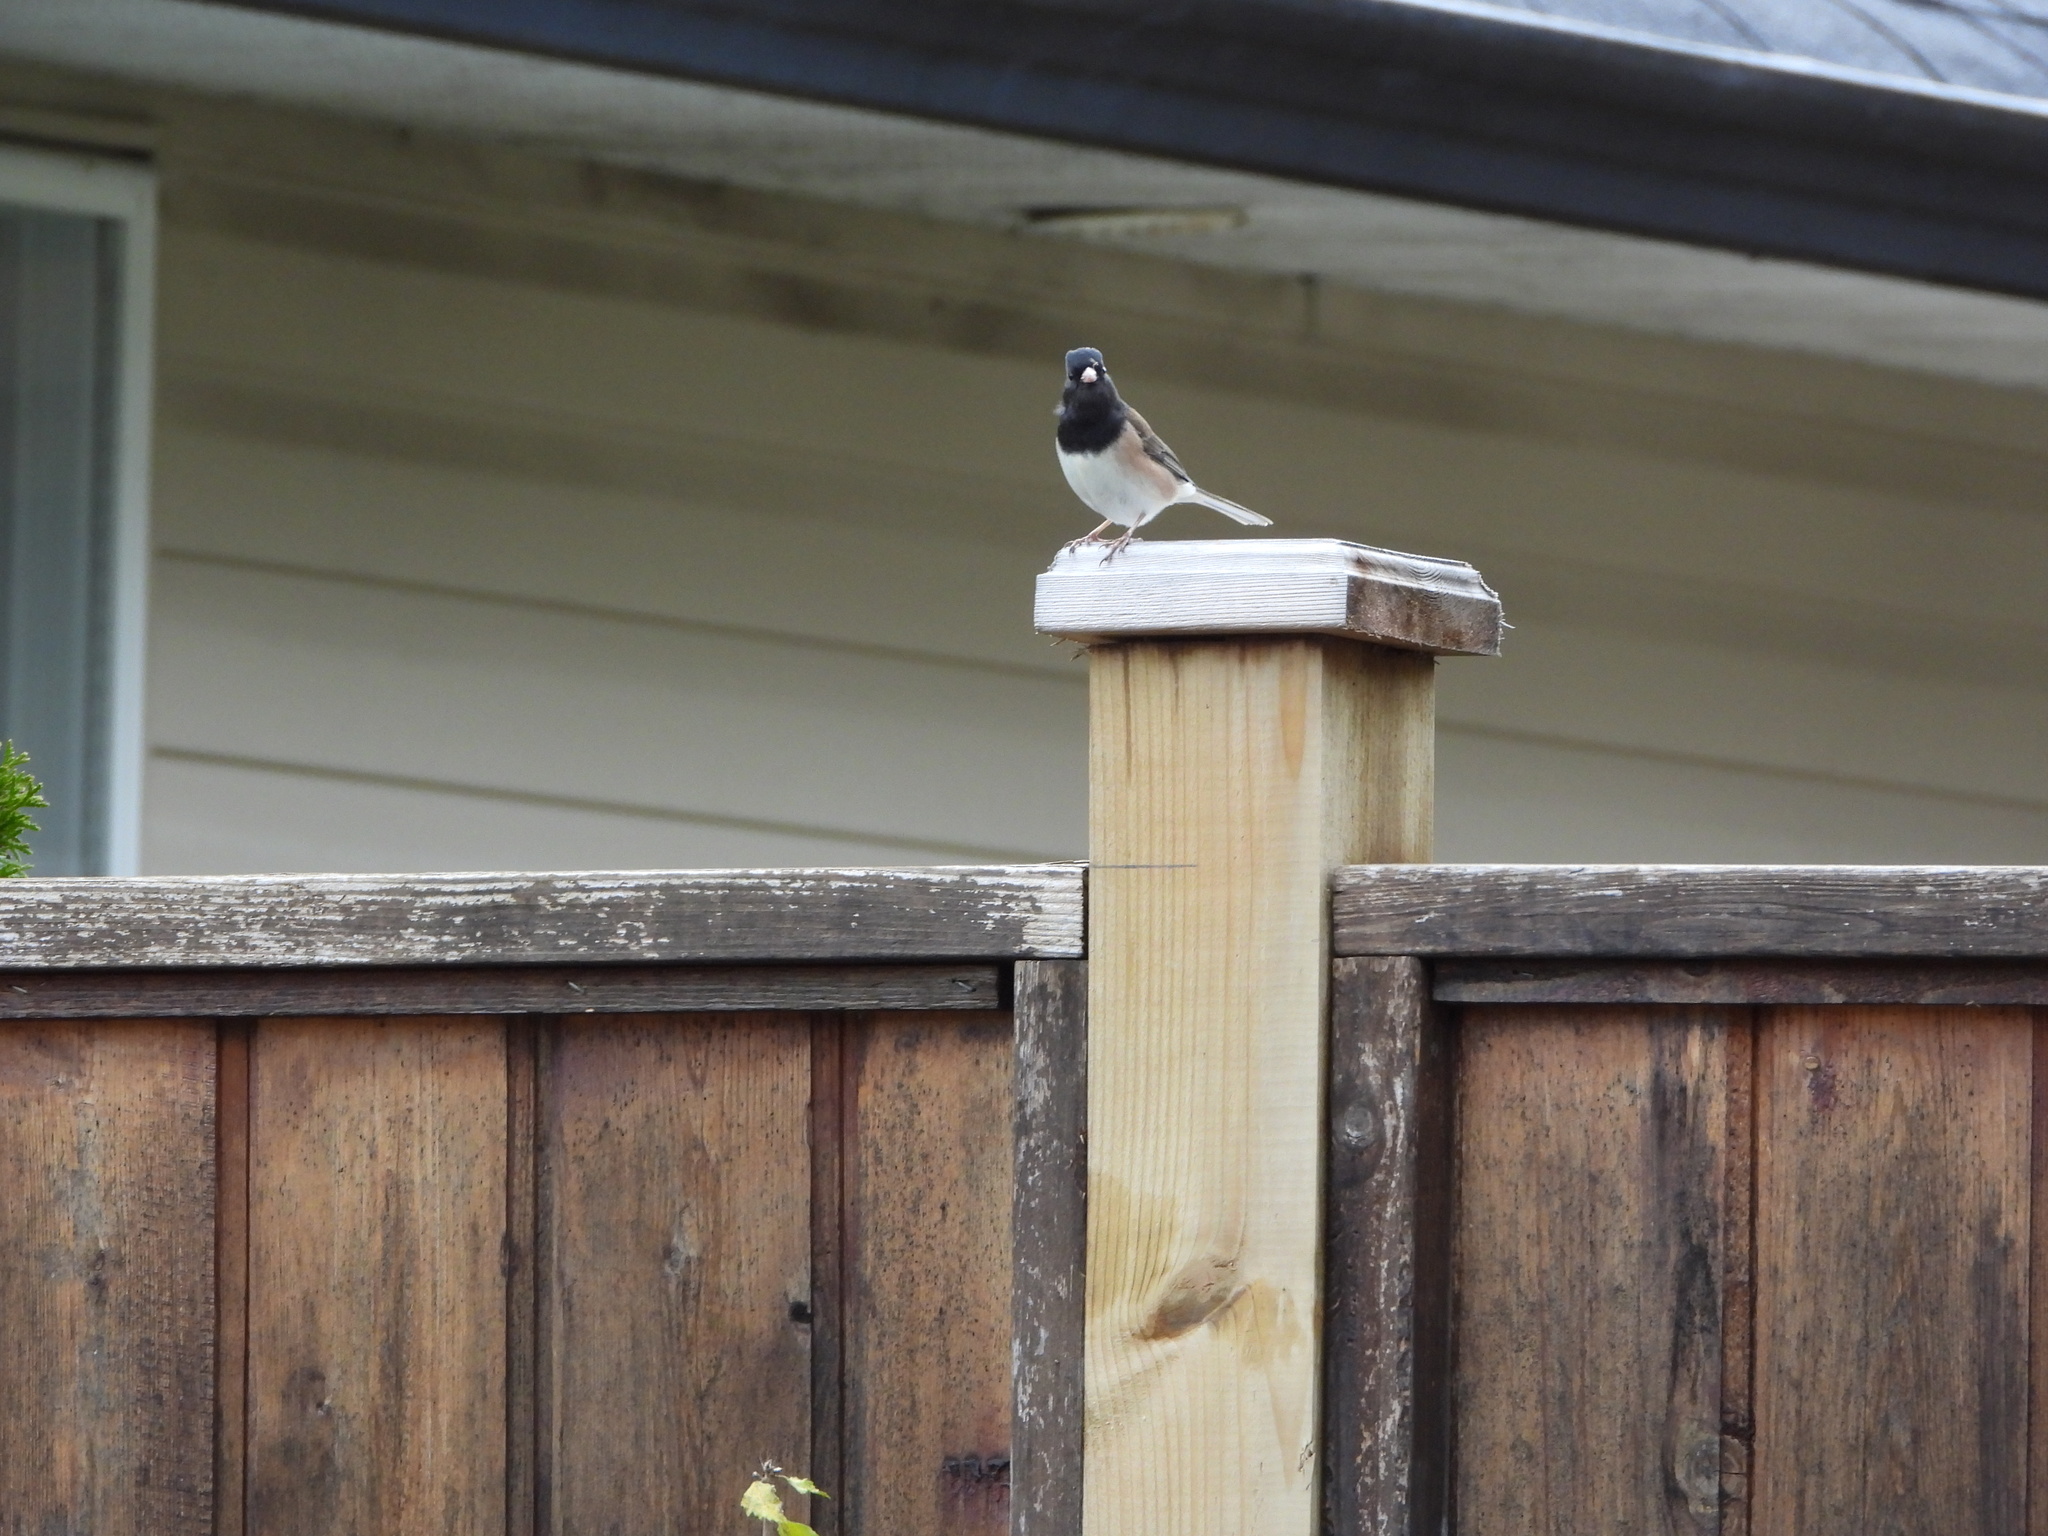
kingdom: Animalia
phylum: Chordata
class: Aves
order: Passeriformes
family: Passerellidae
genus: Junco
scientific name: Junco hyemalis
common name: Dark-eyed junco
